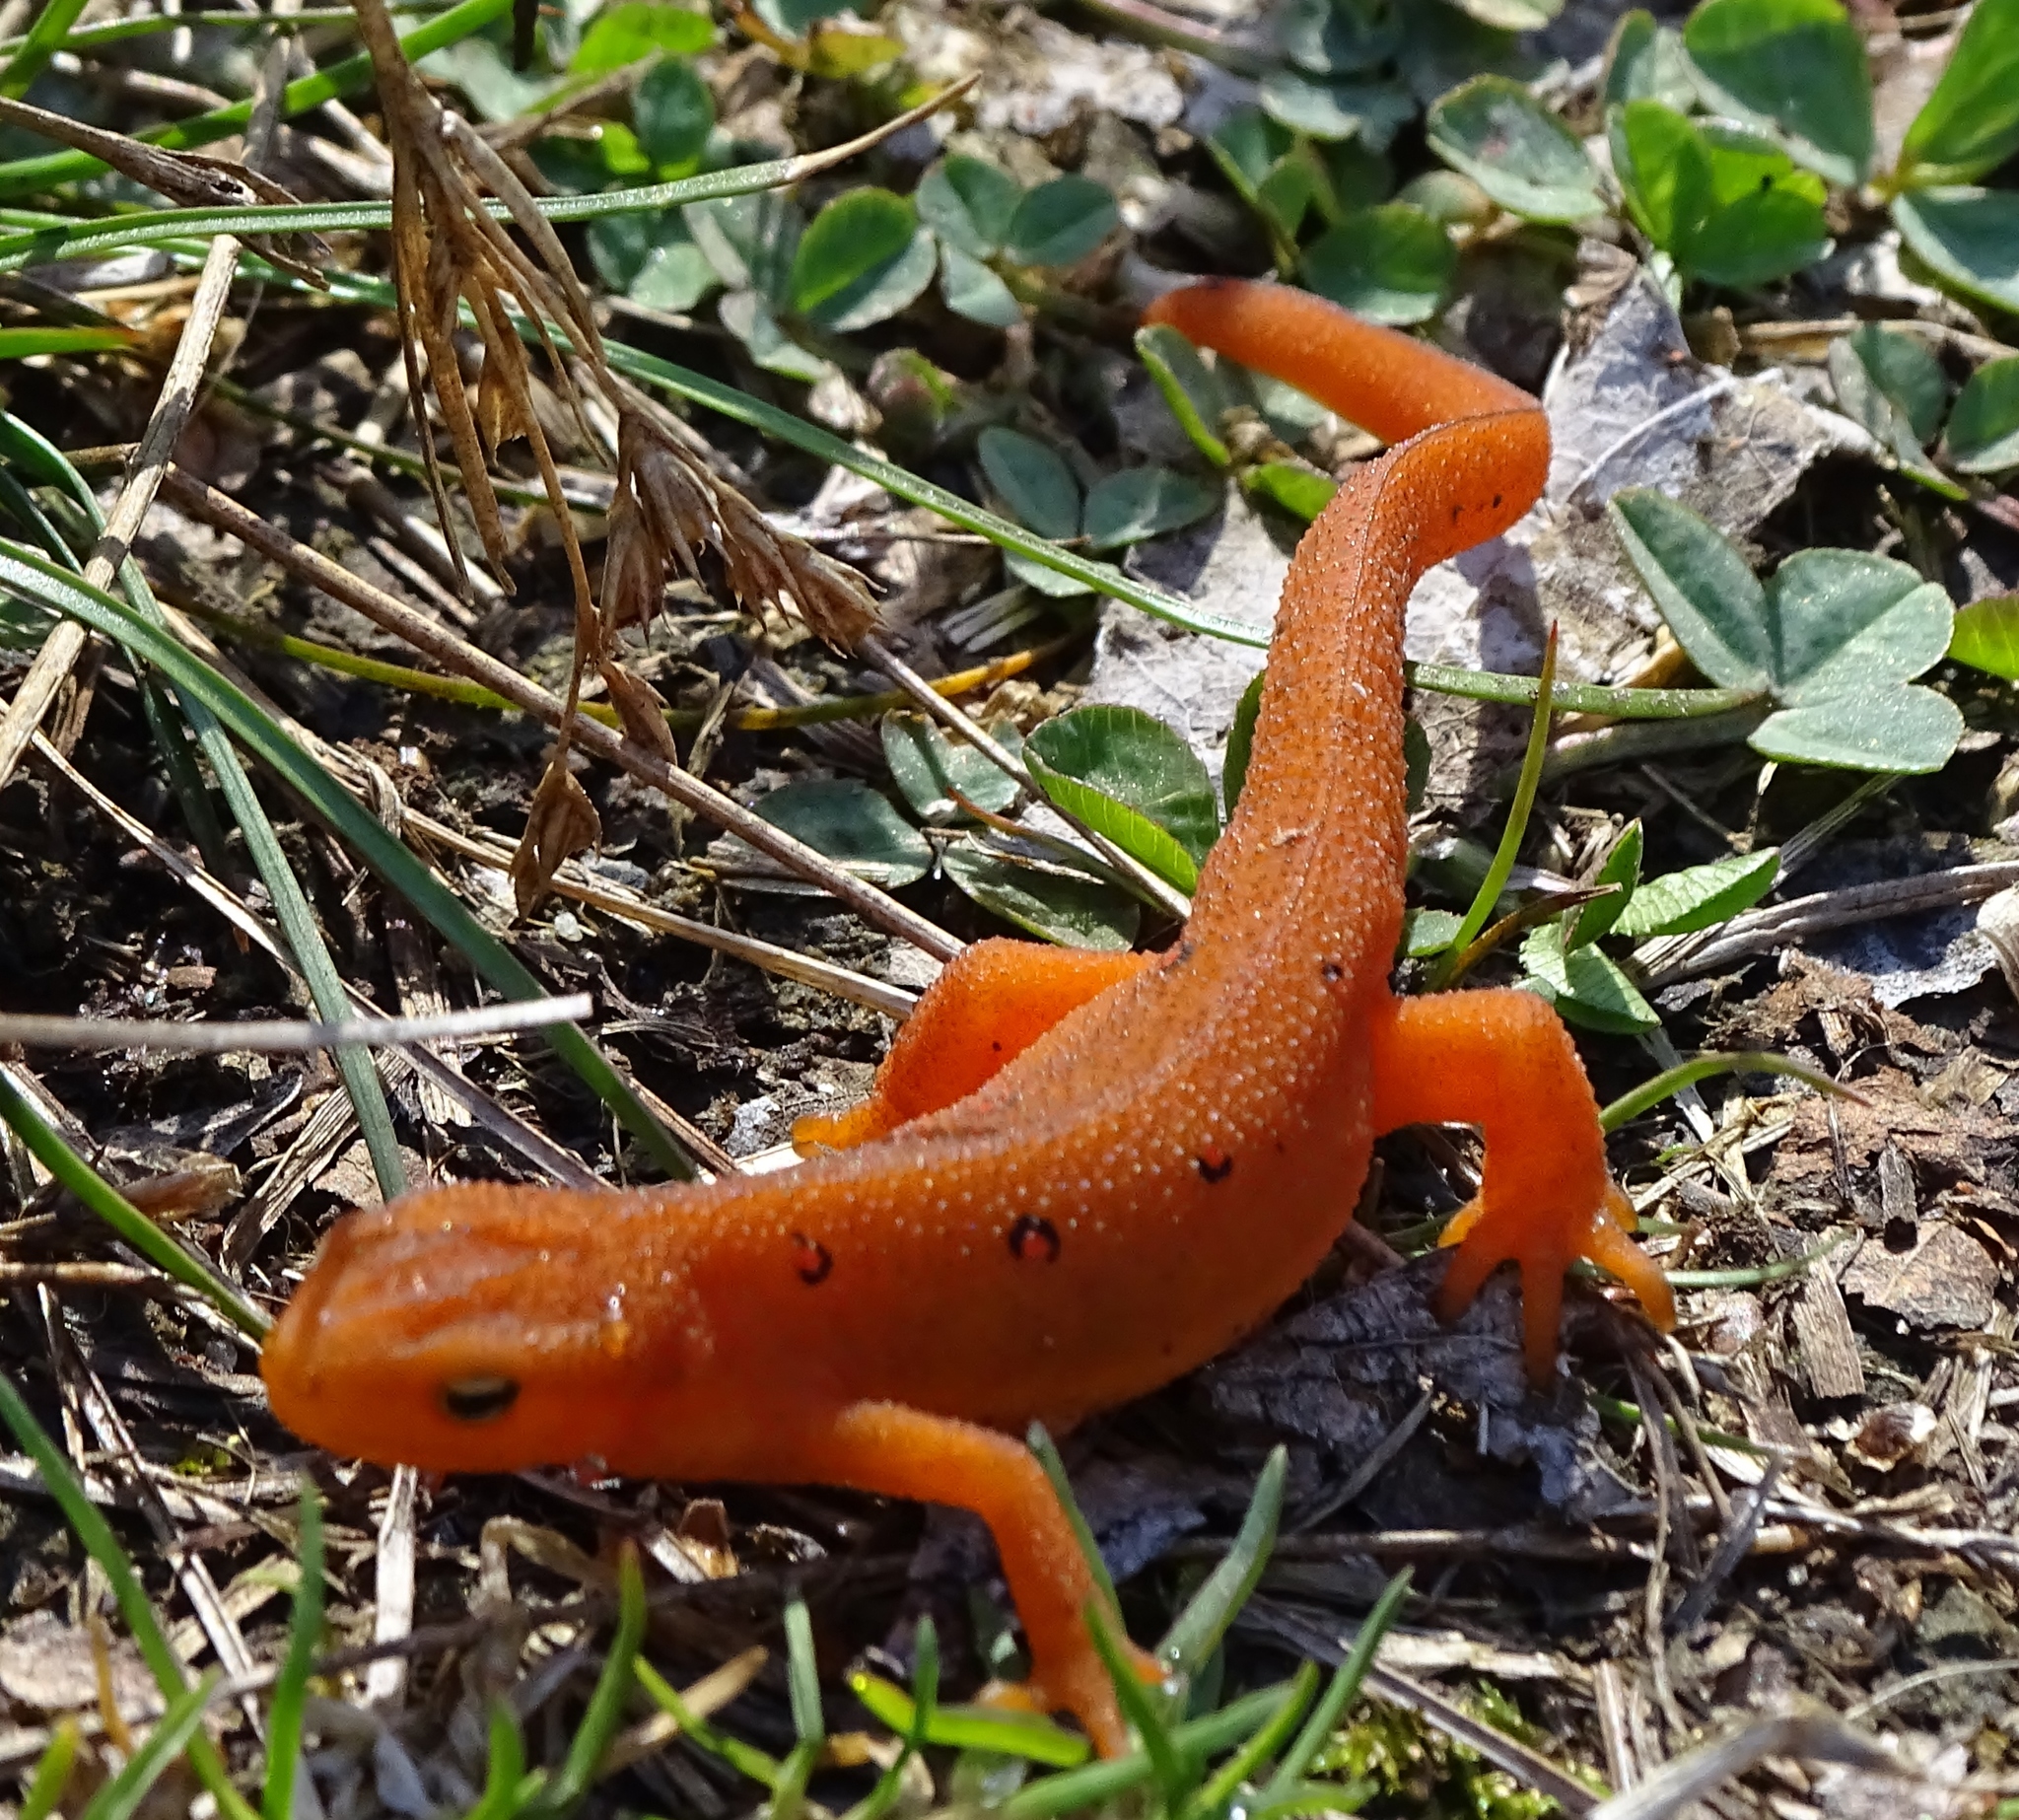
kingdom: Animalia
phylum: Chordata
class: Amphibia
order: Caudata
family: Salamandridae
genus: Notophthalmus
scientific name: Notophthalmus viridescens
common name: Eastern newt
